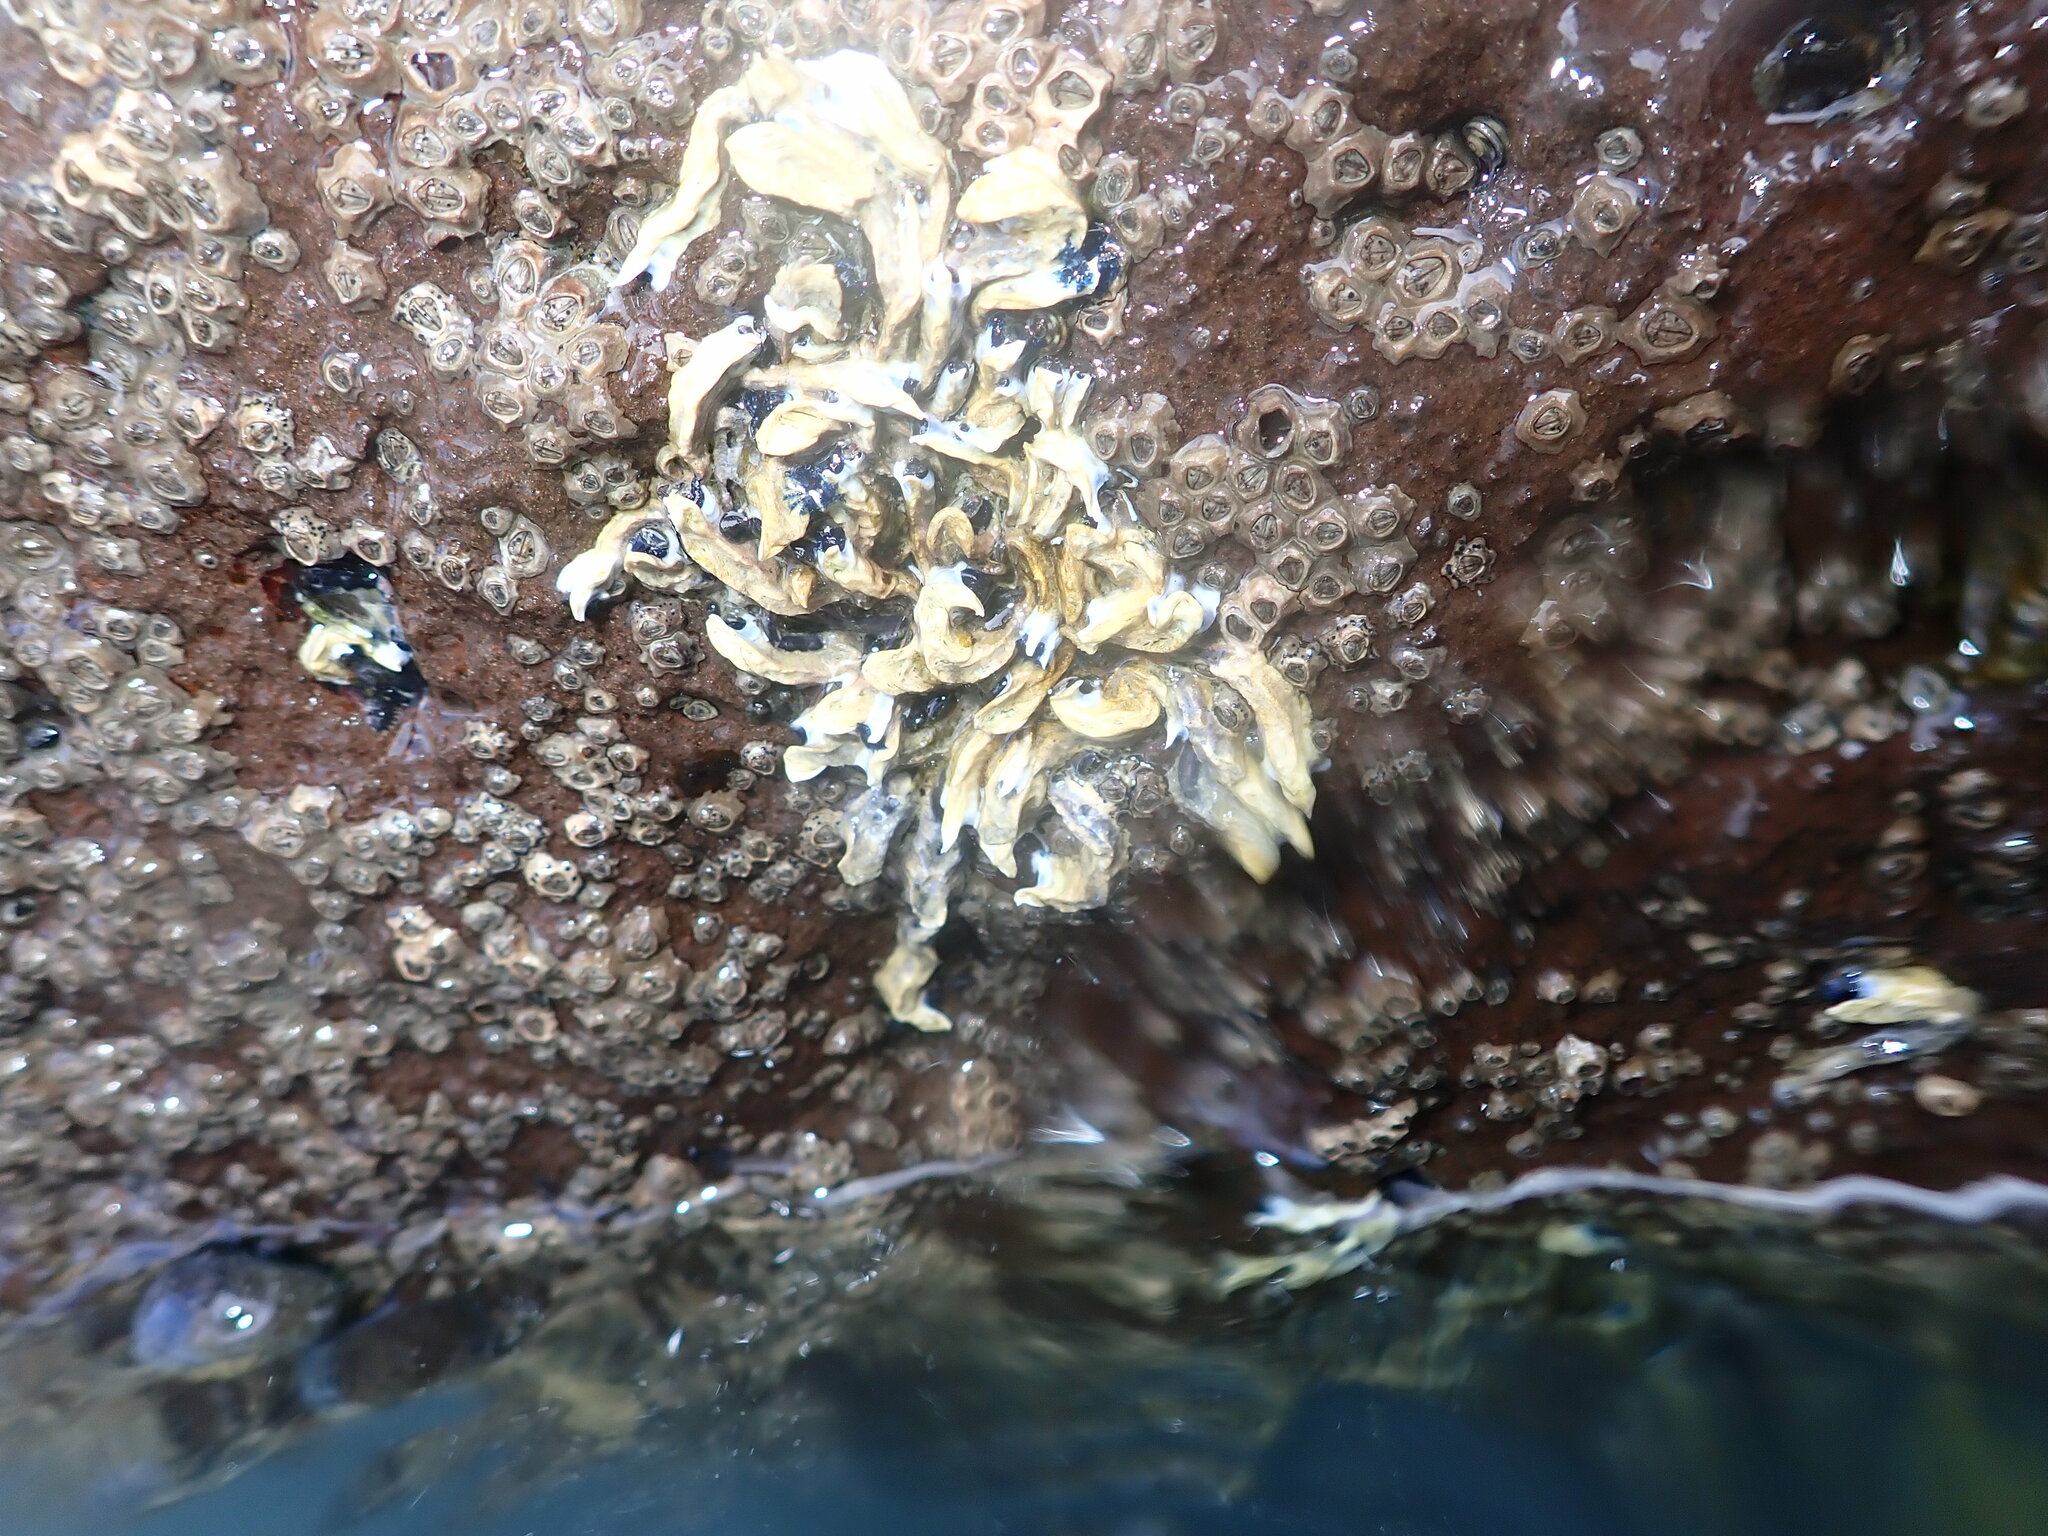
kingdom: Animalia
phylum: Annelida
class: Polychaeta
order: Sabellida
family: Serpulidae
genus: Spirobranchus
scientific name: Spirobranchus cariniferus
